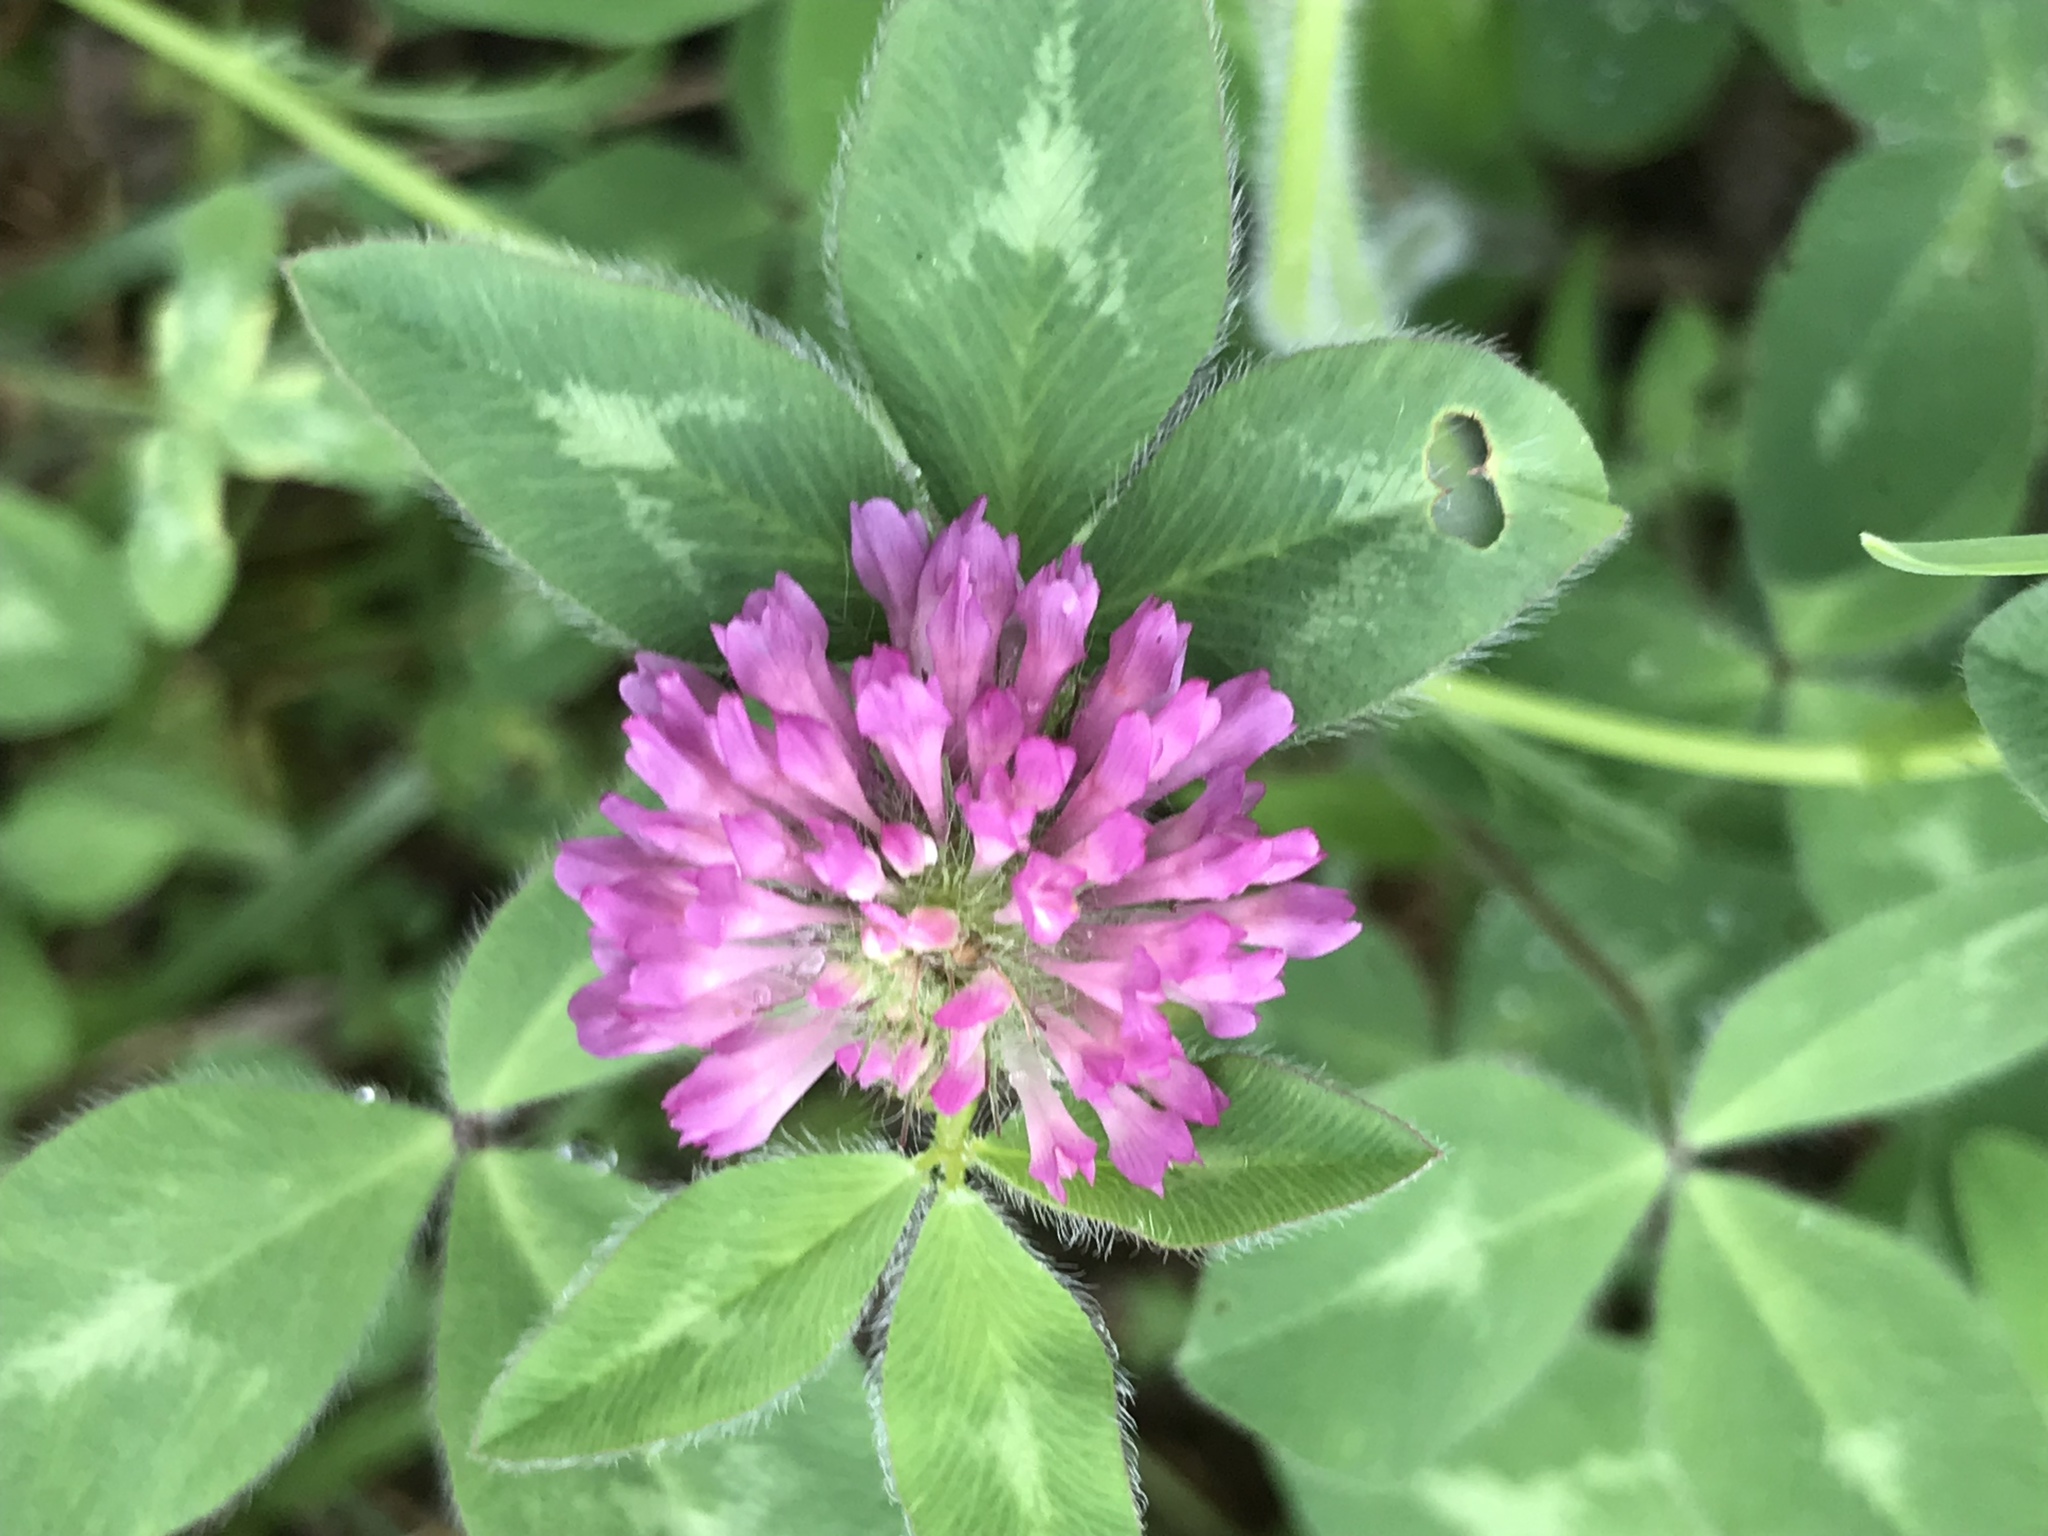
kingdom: Plantae
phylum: Tracheophyta
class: Magnoliopsida
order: Fabales
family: Fabaceae
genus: Trifolium
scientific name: Trifolium pratense
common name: Red clover
